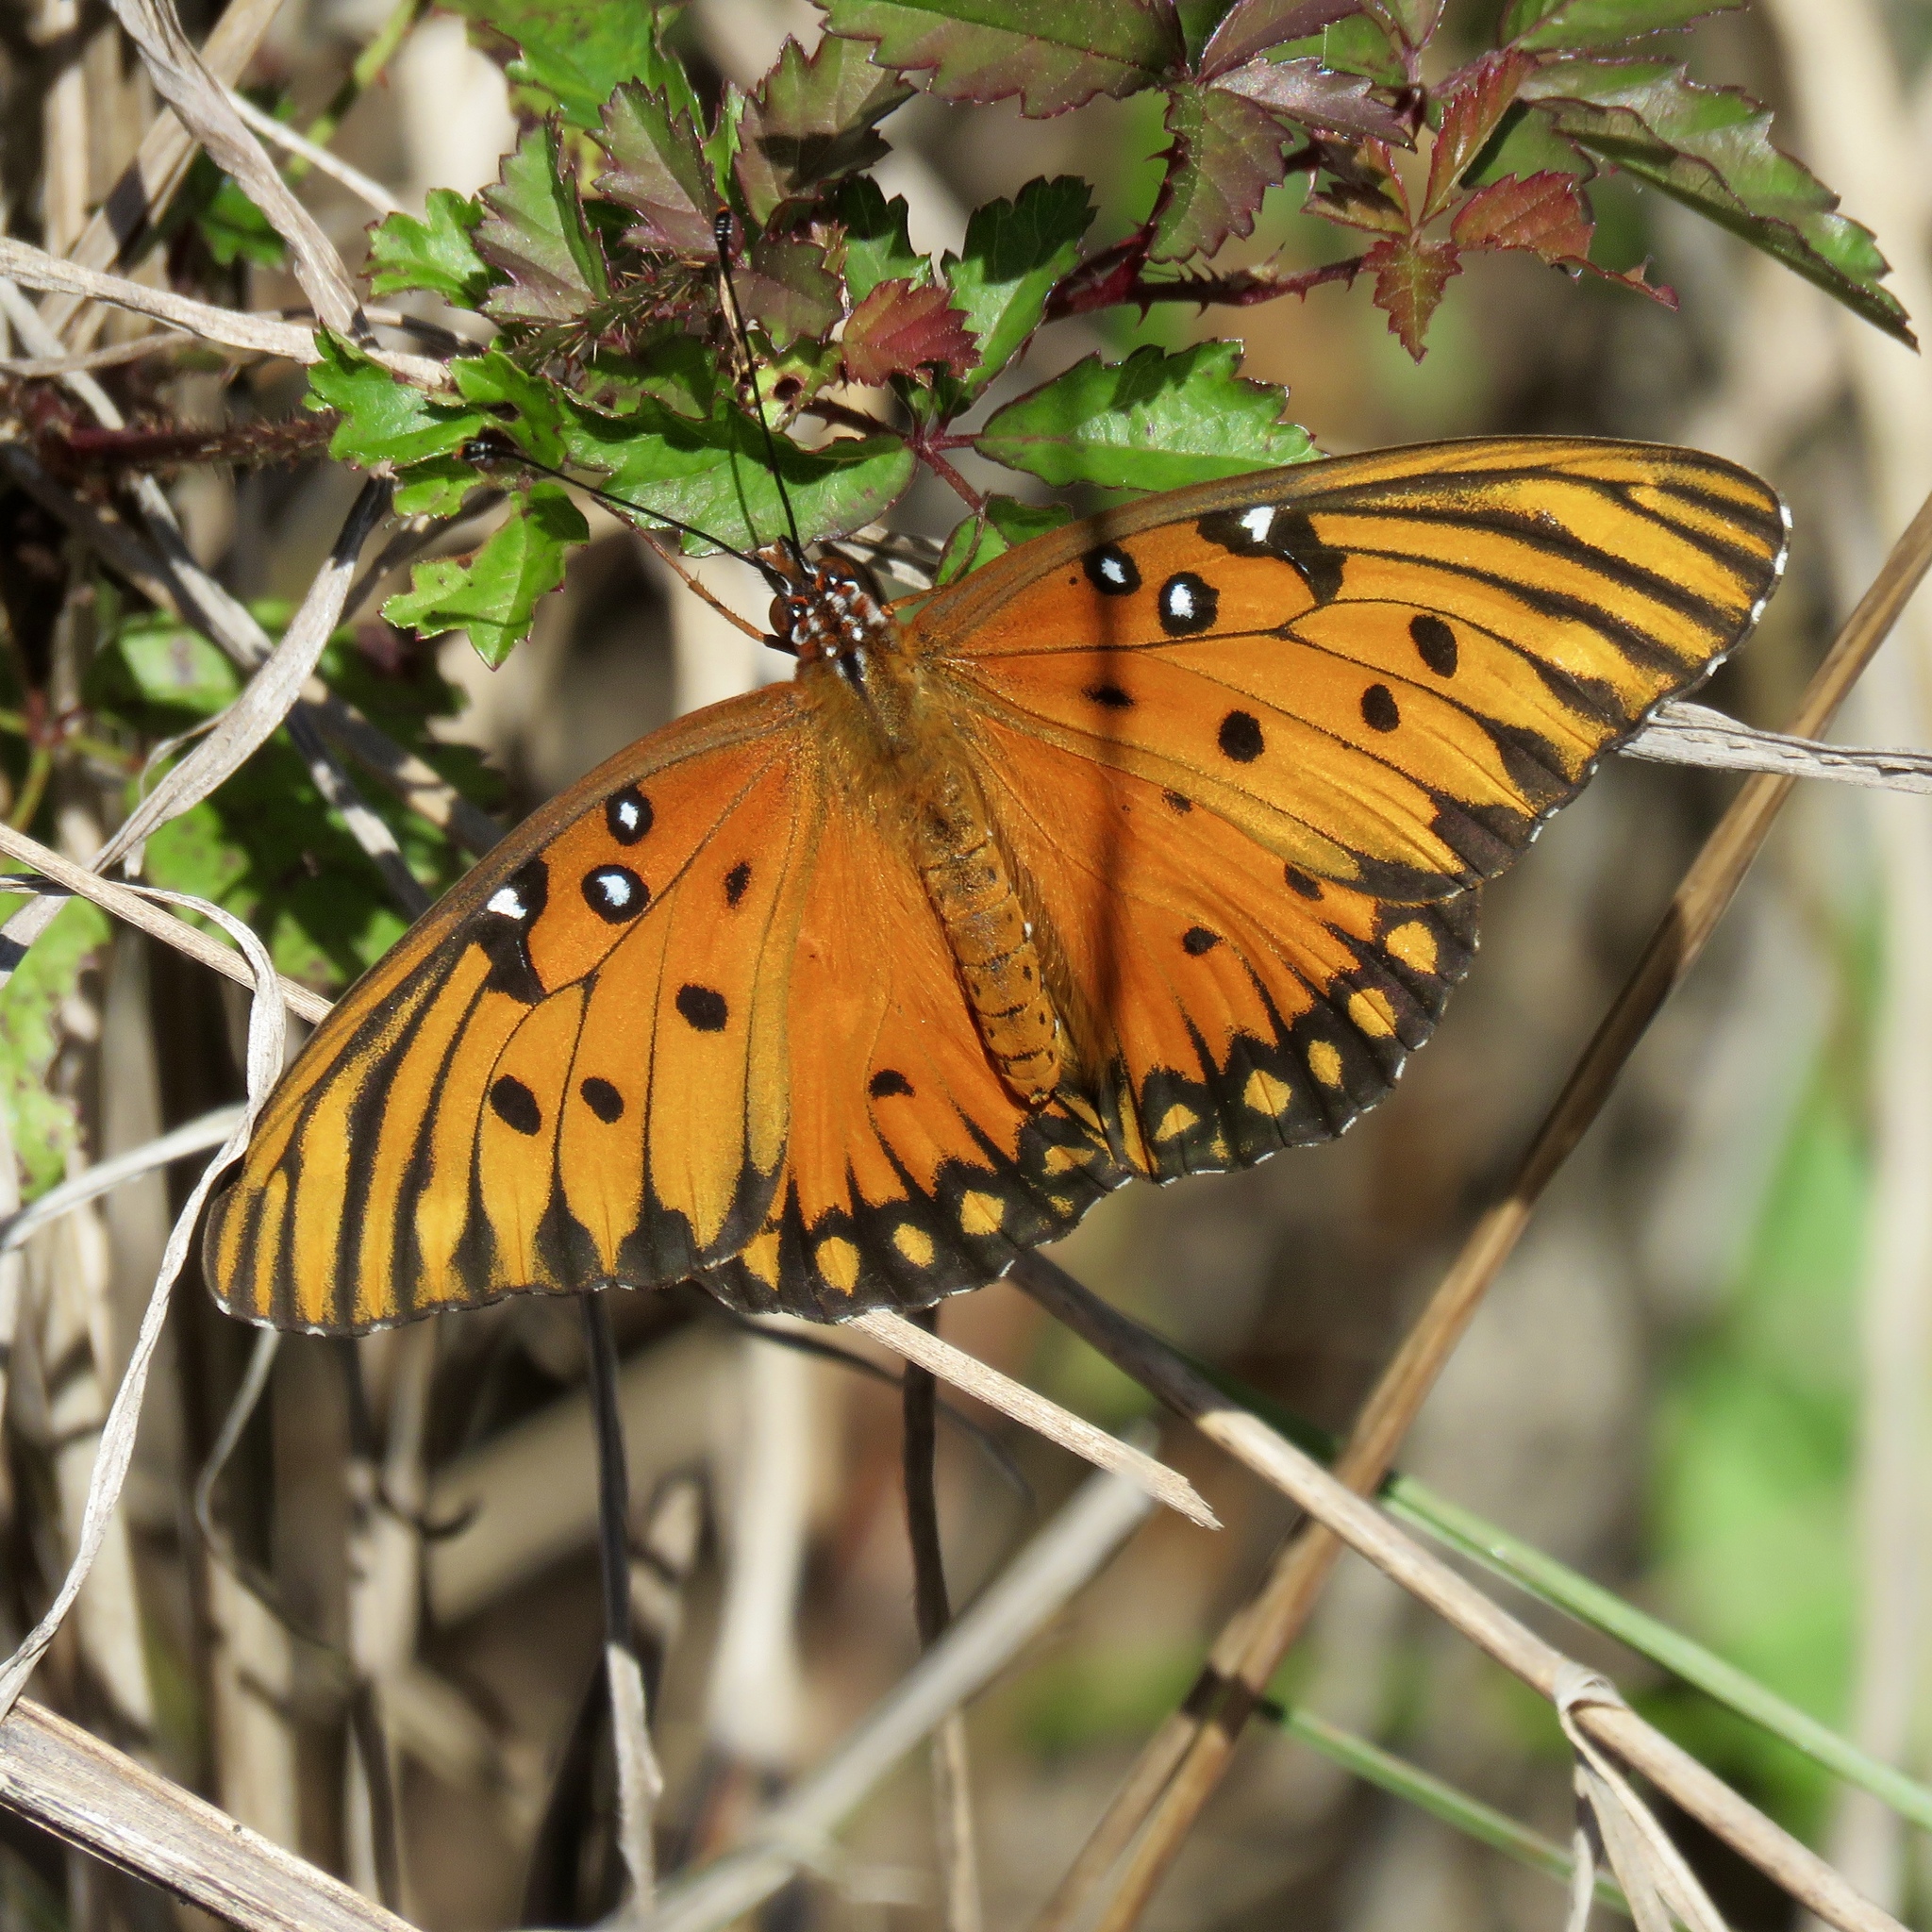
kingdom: Animalia
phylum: Arthropoda
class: Insecta
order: Lepidoptera
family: Nymphalidae
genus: Dione
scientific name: Dione vanillae
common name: Gulf fritillary
